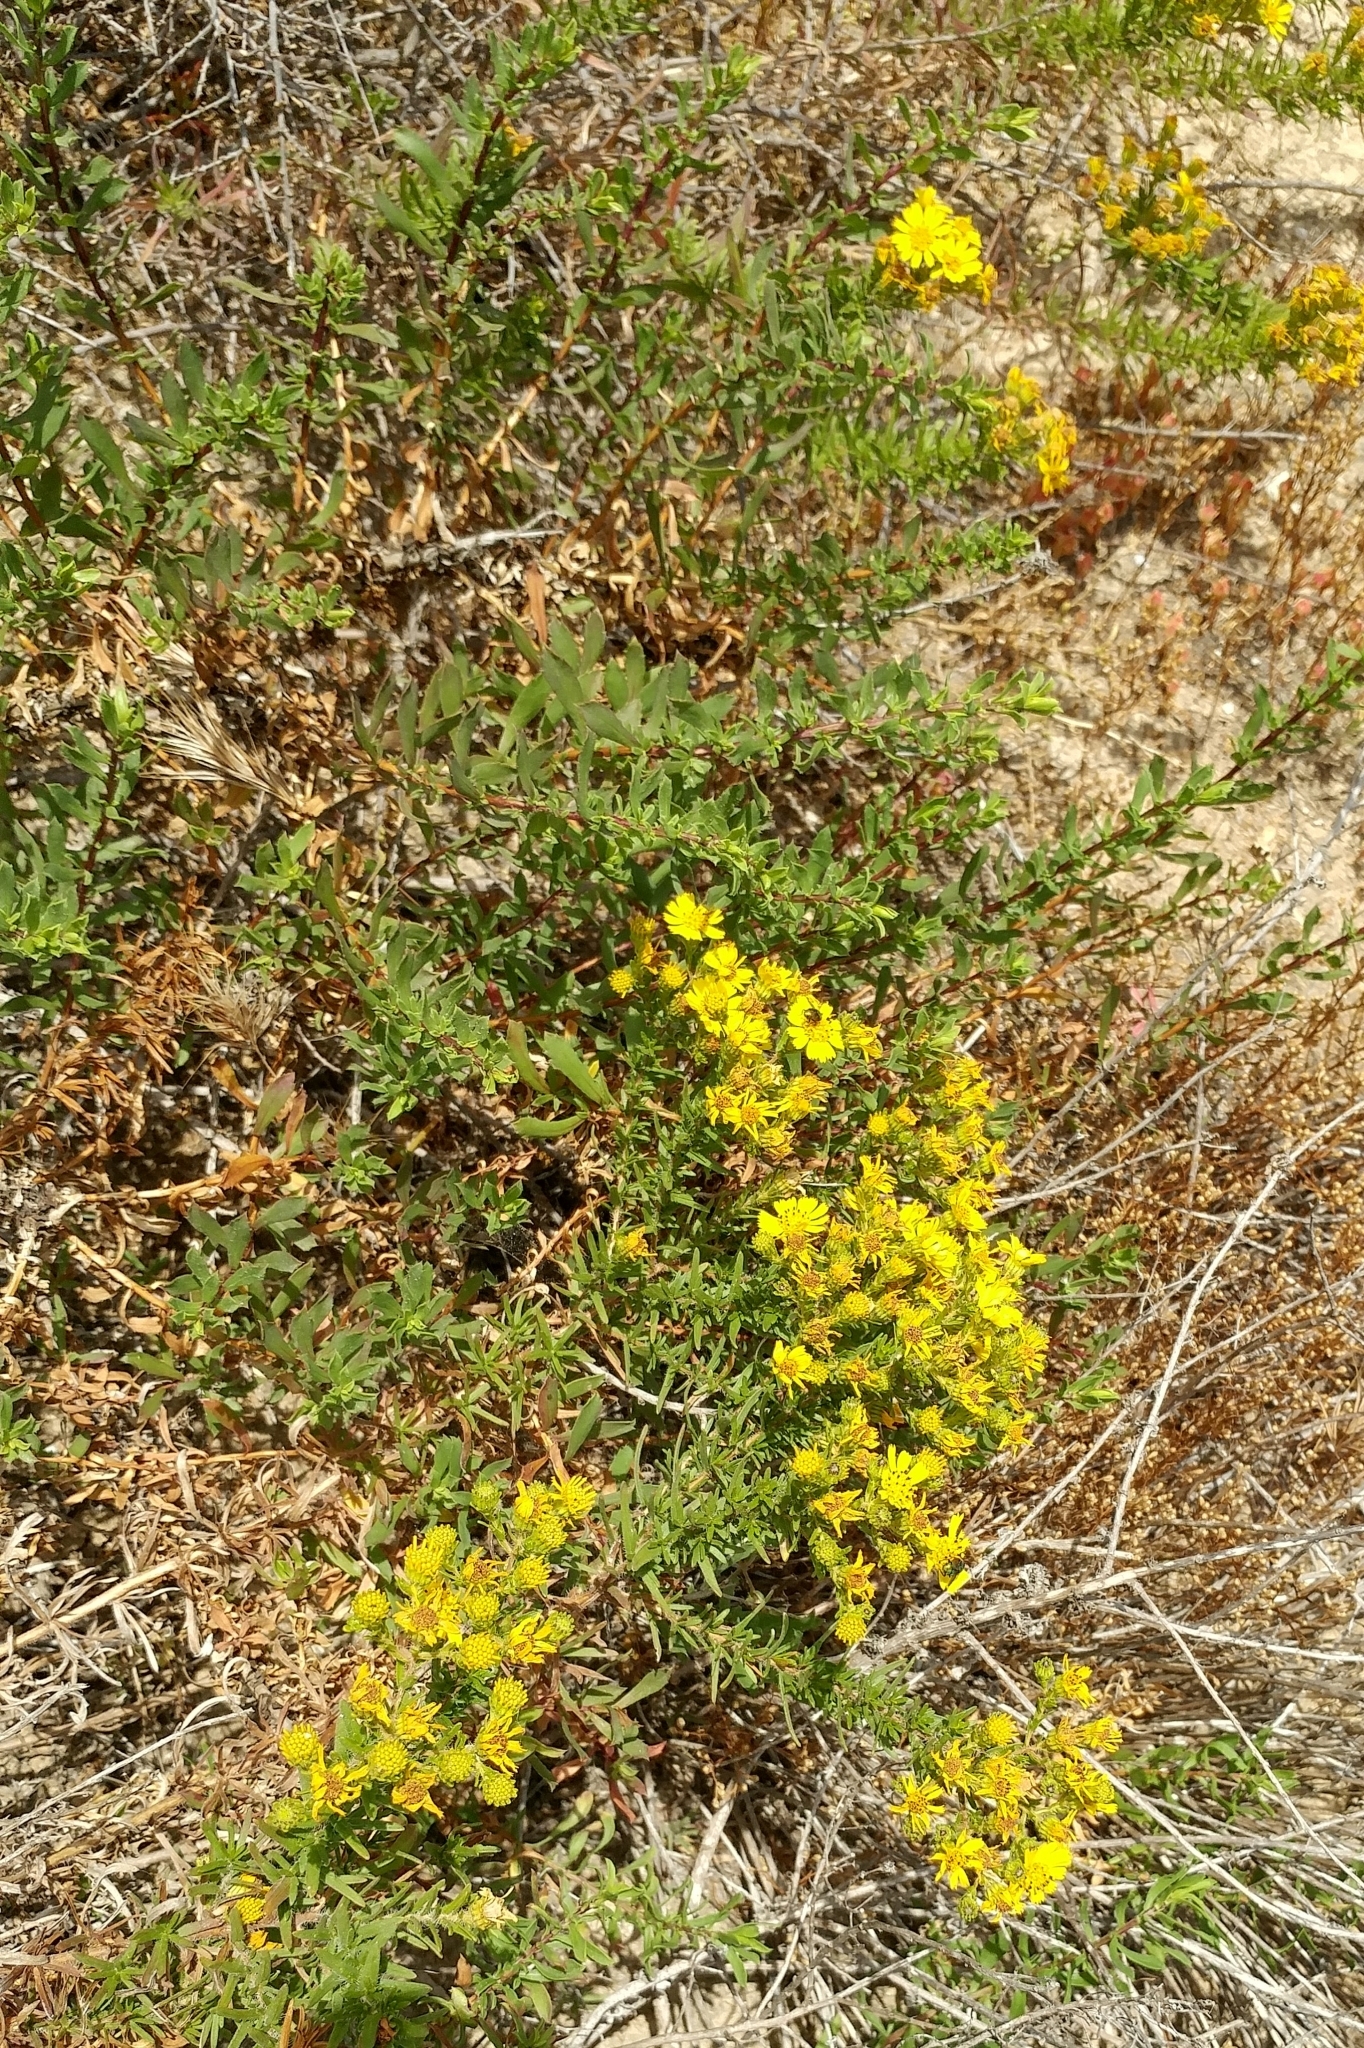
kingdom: Plantae
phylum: Tracheophyta
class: Magnoliopsida
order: Asterales
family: Asteraceae
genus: Deinandra
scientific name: Deinandra clementina
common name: Island tarplant
